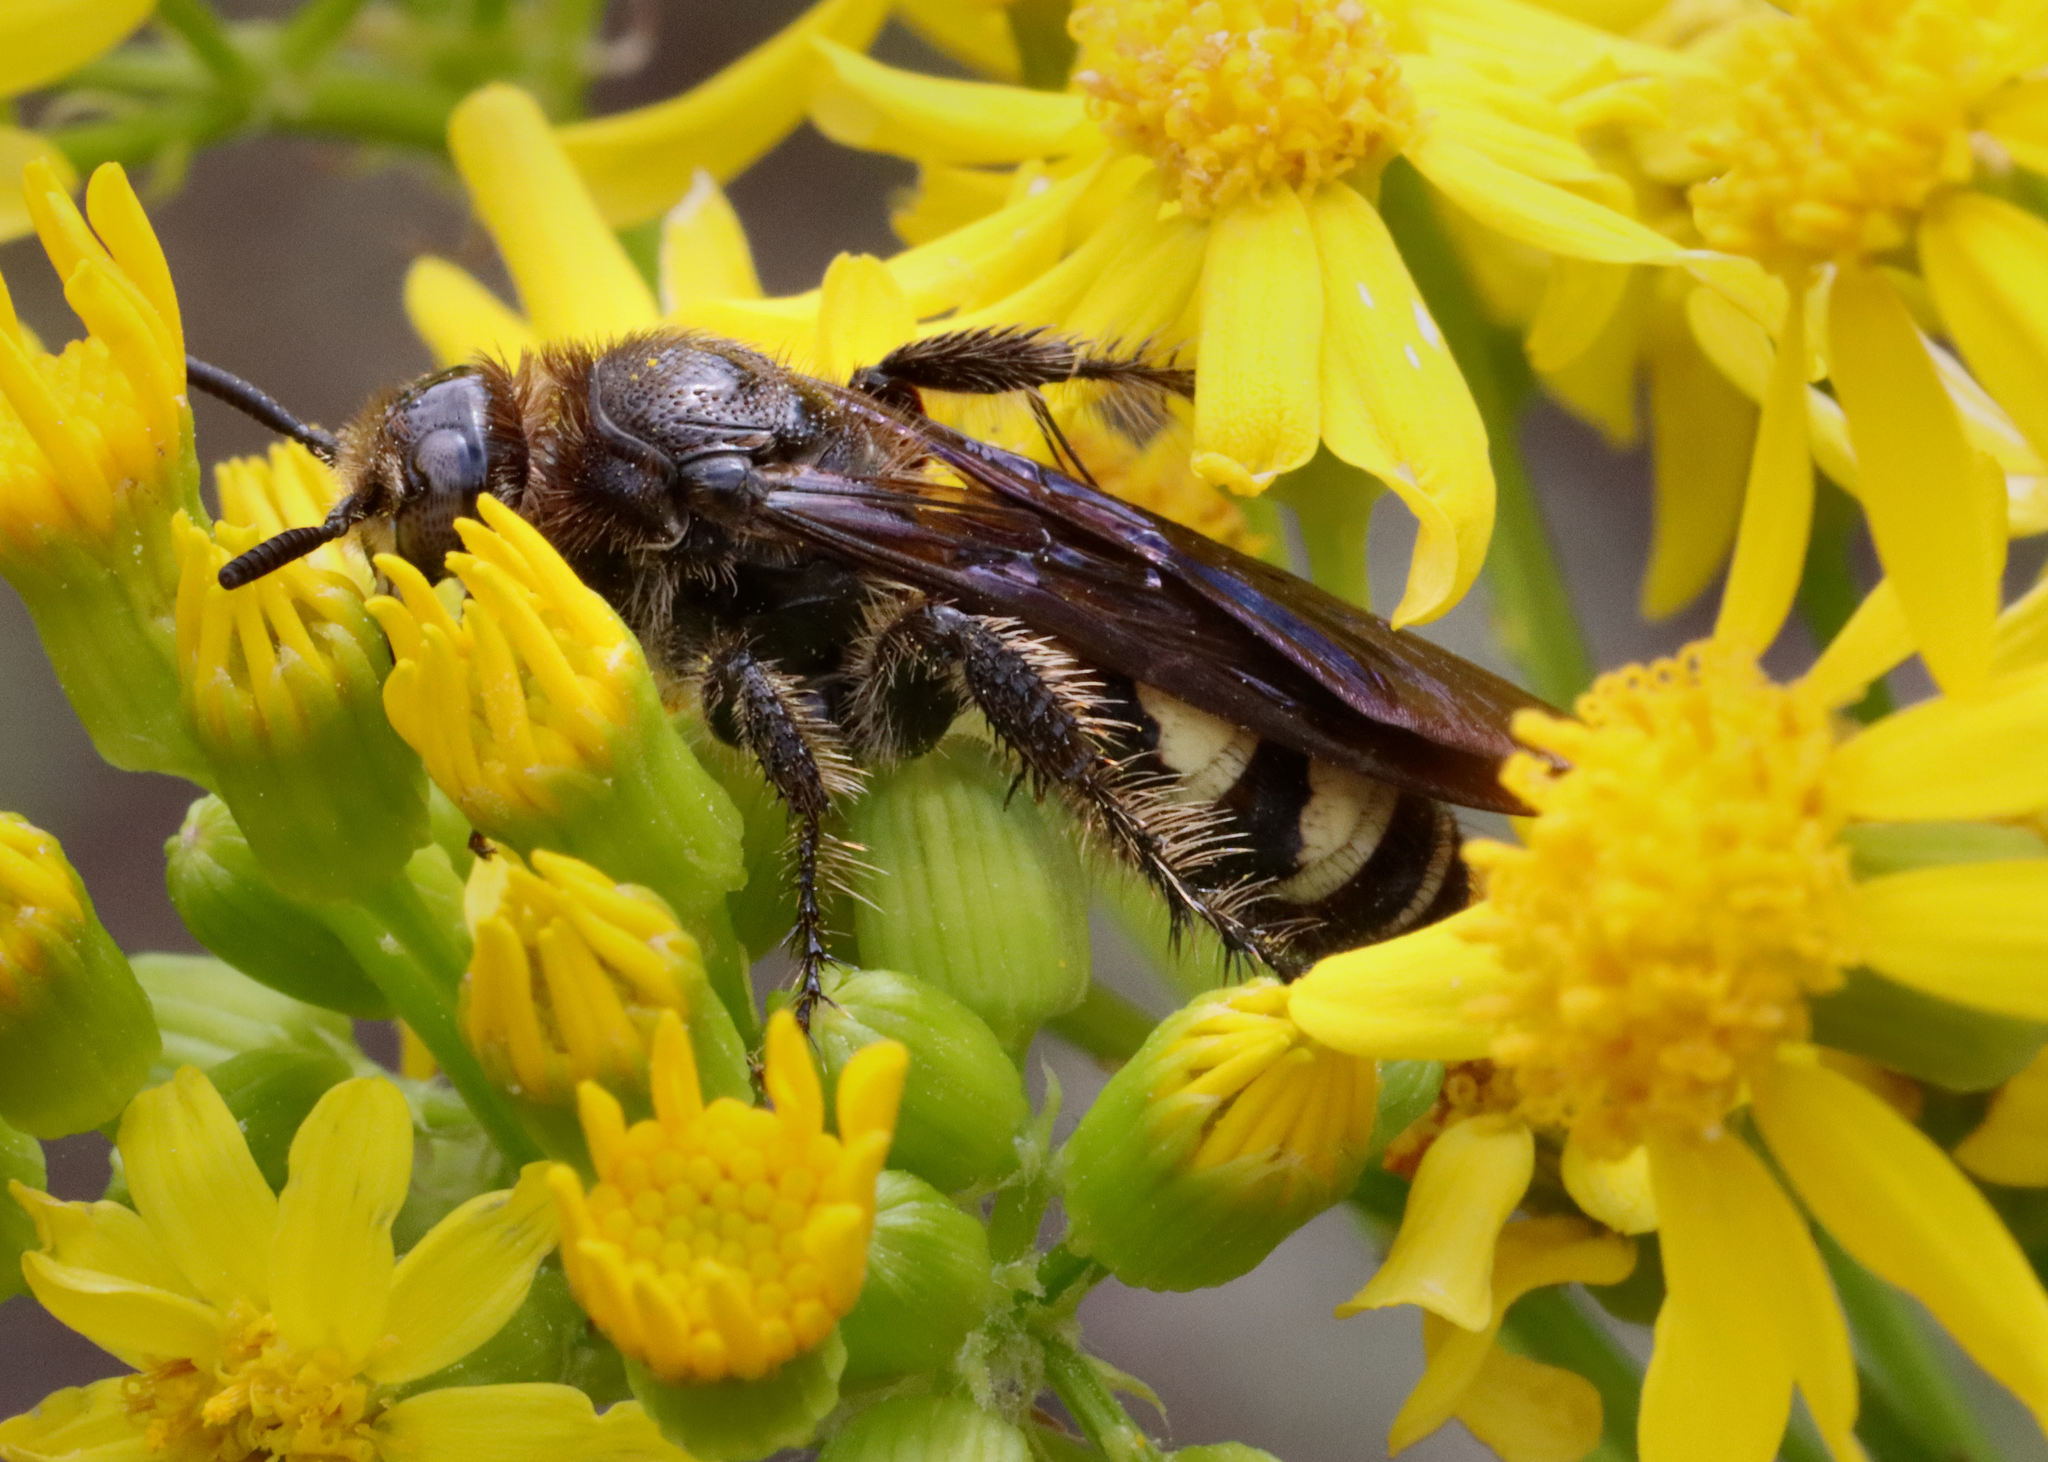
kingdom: Animalia
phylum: Arthropoda
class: Insecta
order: Hymenoptera
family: Scoliidae
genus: Dielis
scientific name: Dielis
